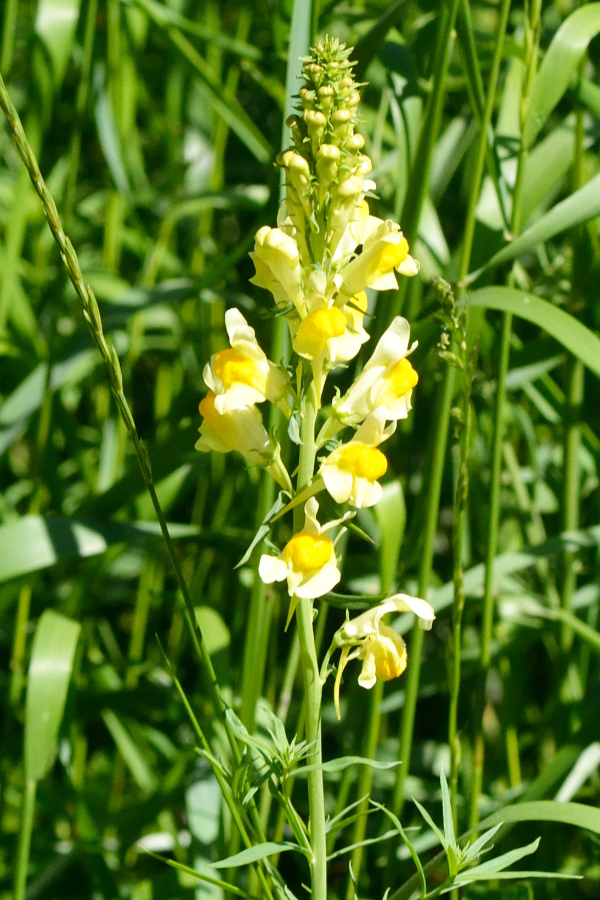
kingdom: Plantae
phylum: Tracheophyta
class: Magnoliopsida
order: Lamiales
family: Plantaginaceae
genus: Linaria
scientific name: Linaria vulgaris
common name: Butter and eggs
